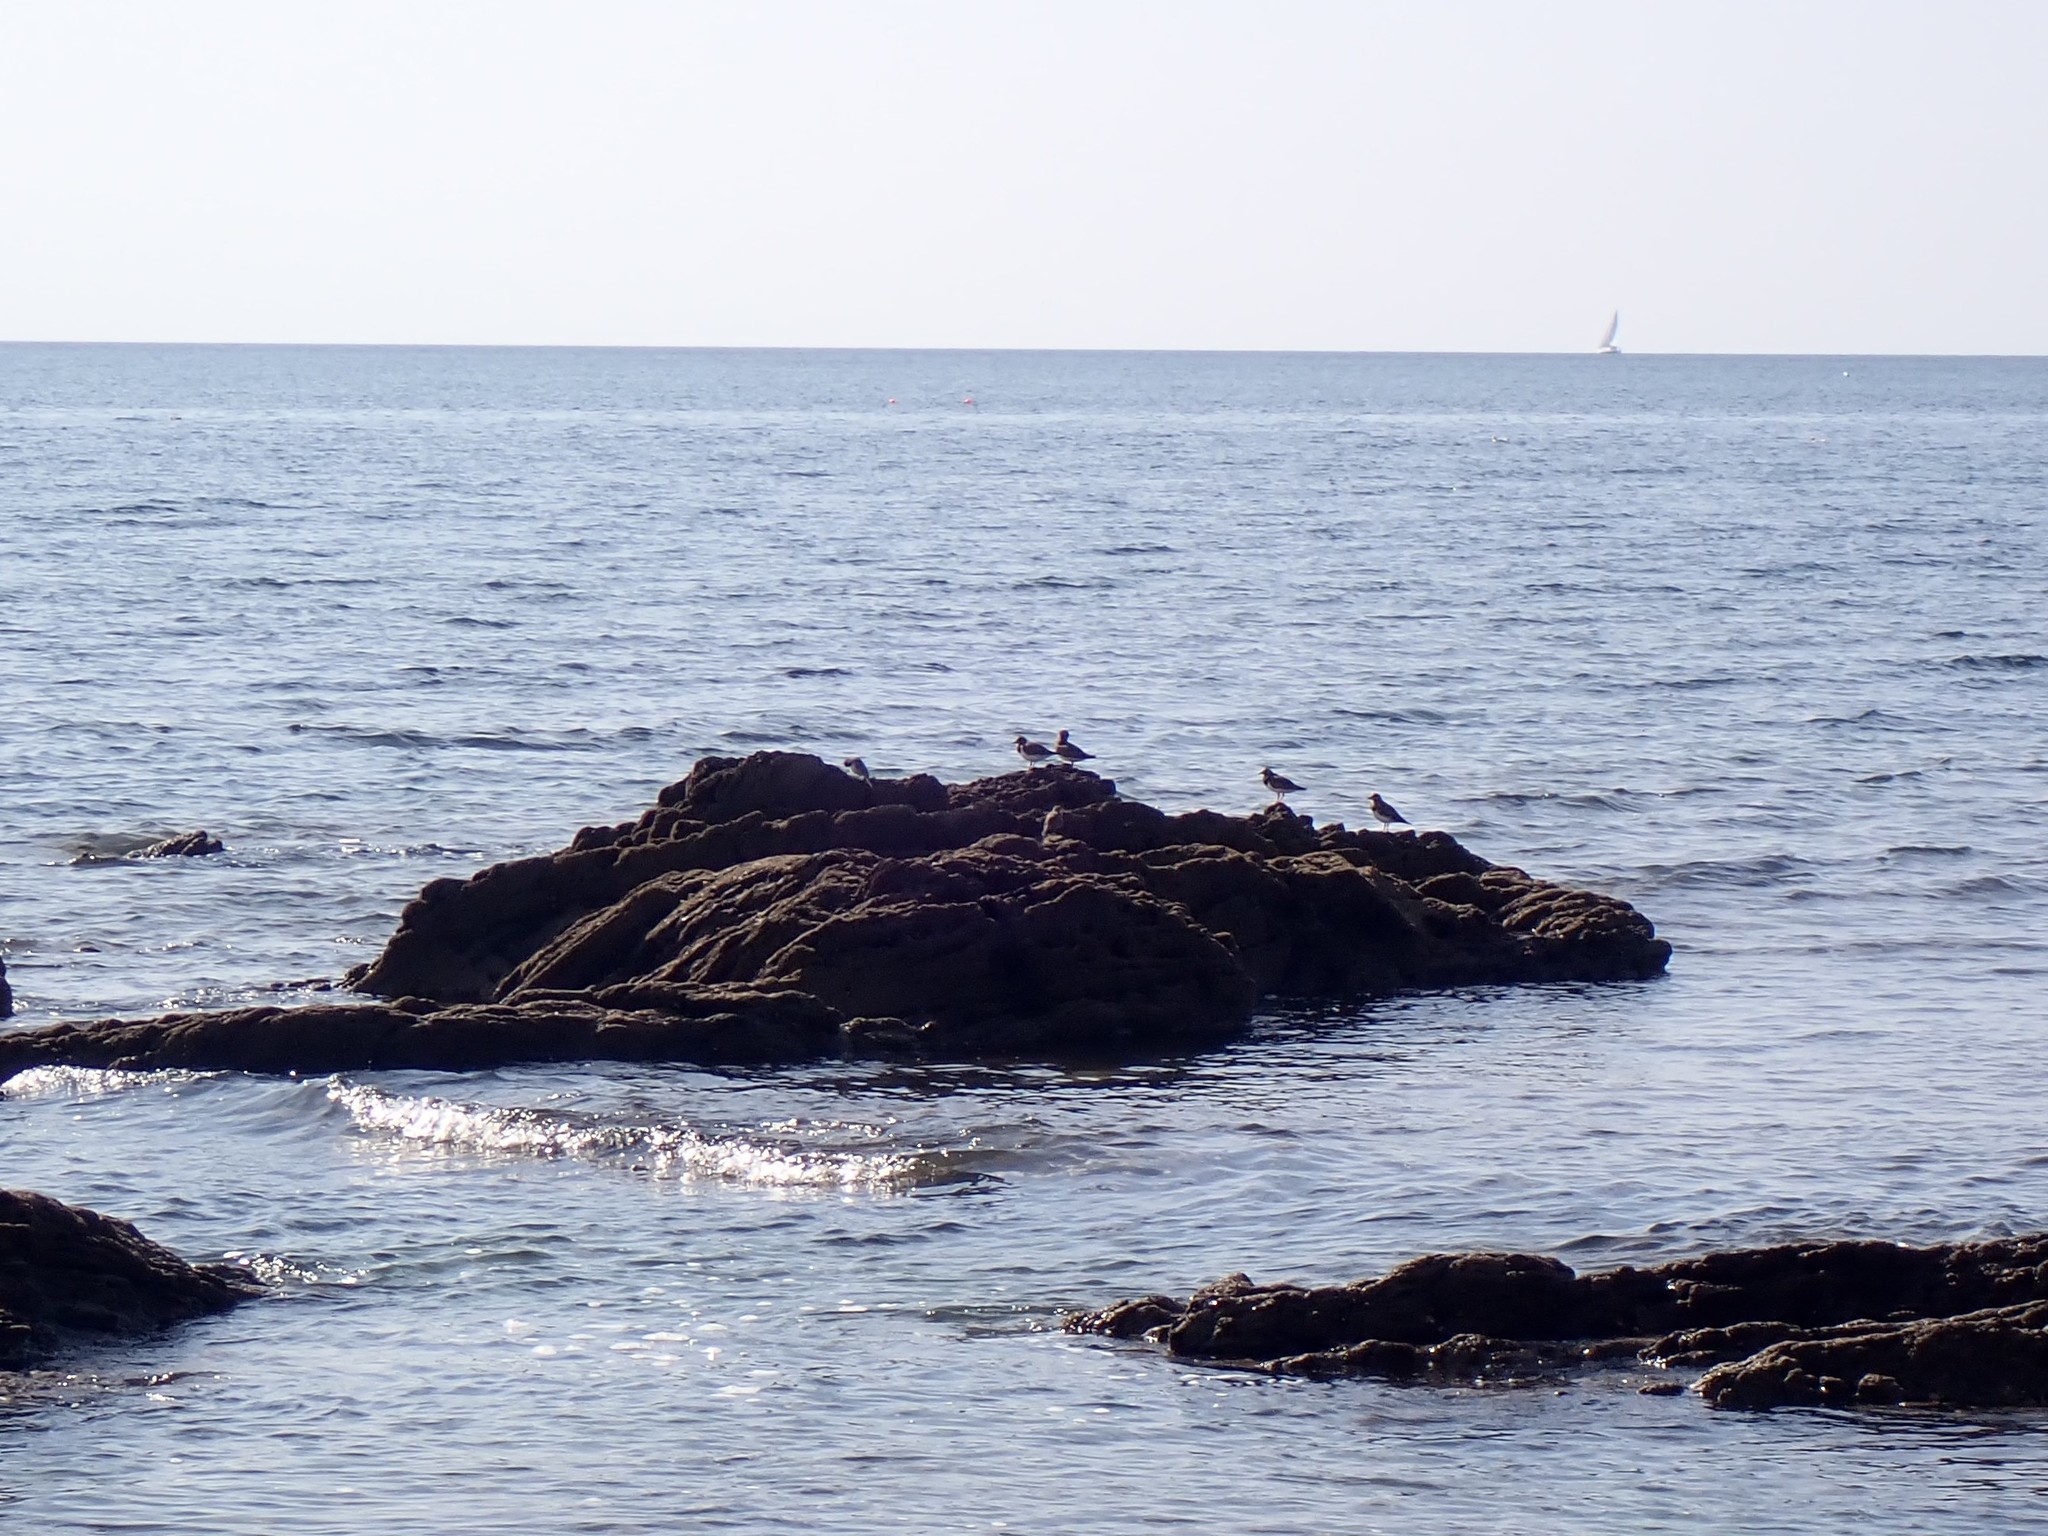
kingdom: Animalia
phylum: Chordata
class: Aves
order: Charadriiformes
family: Scolopacidae
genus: Arenaria
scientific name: Arenaria interpres
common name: Ruddy turnstone
